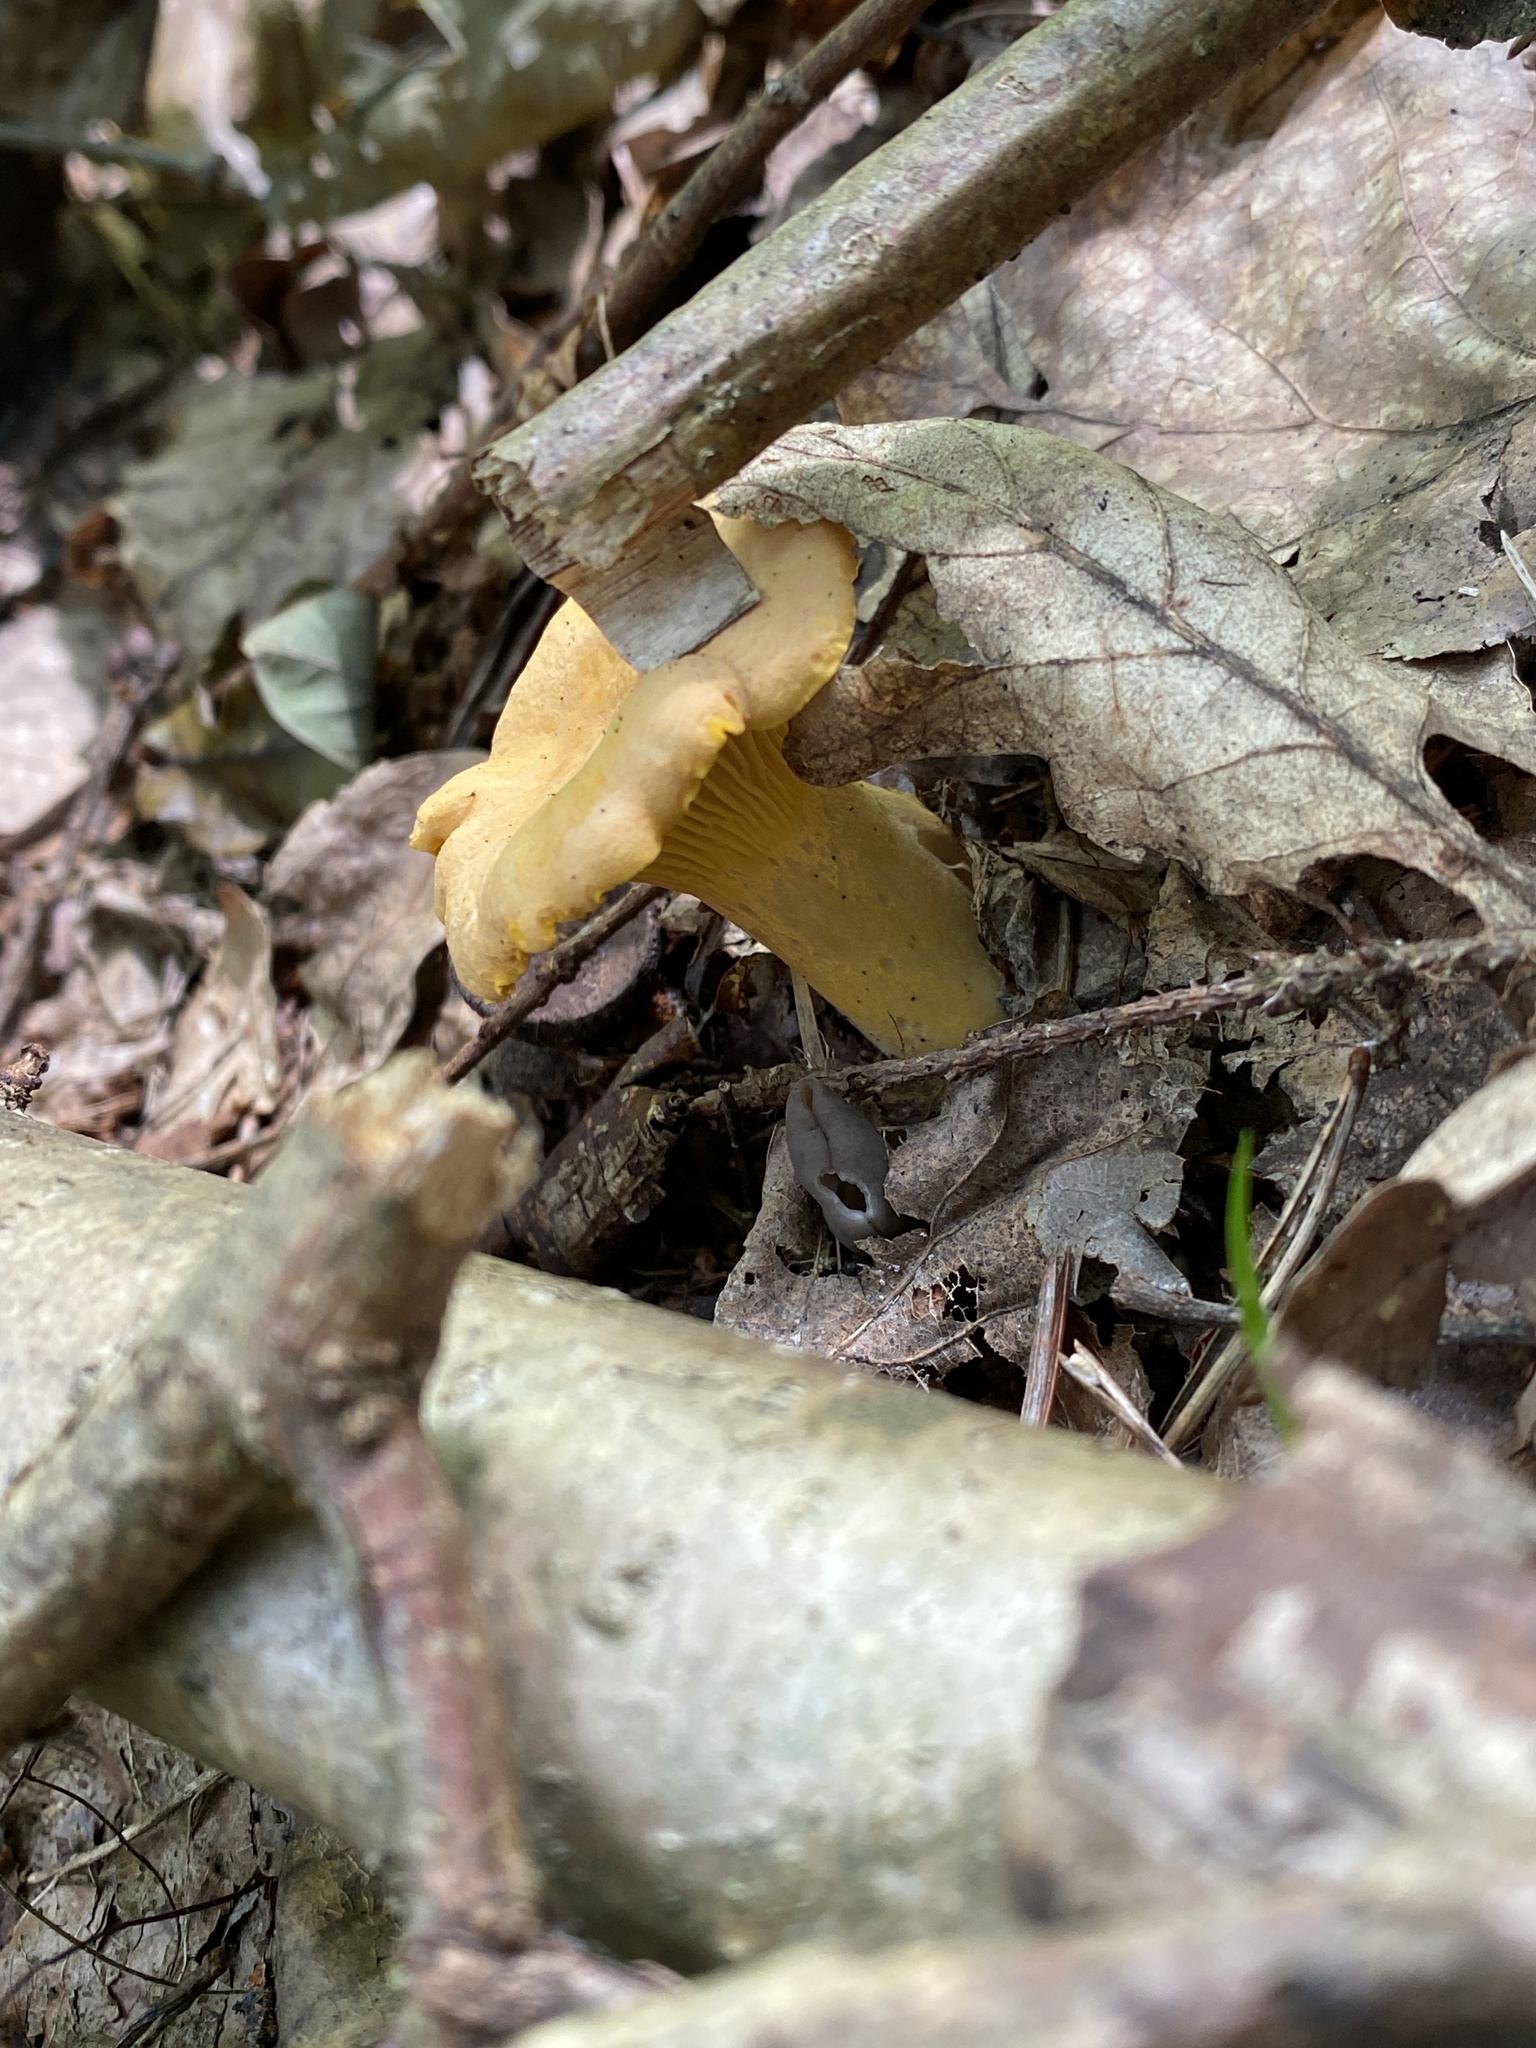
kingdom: Fungi
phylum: Basidiomycota
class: Agaricomycetes
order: Cantharellales
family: Hydnaceae
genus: Cantharellus
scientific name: Cantharellus cibarius
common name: Chanterelle
